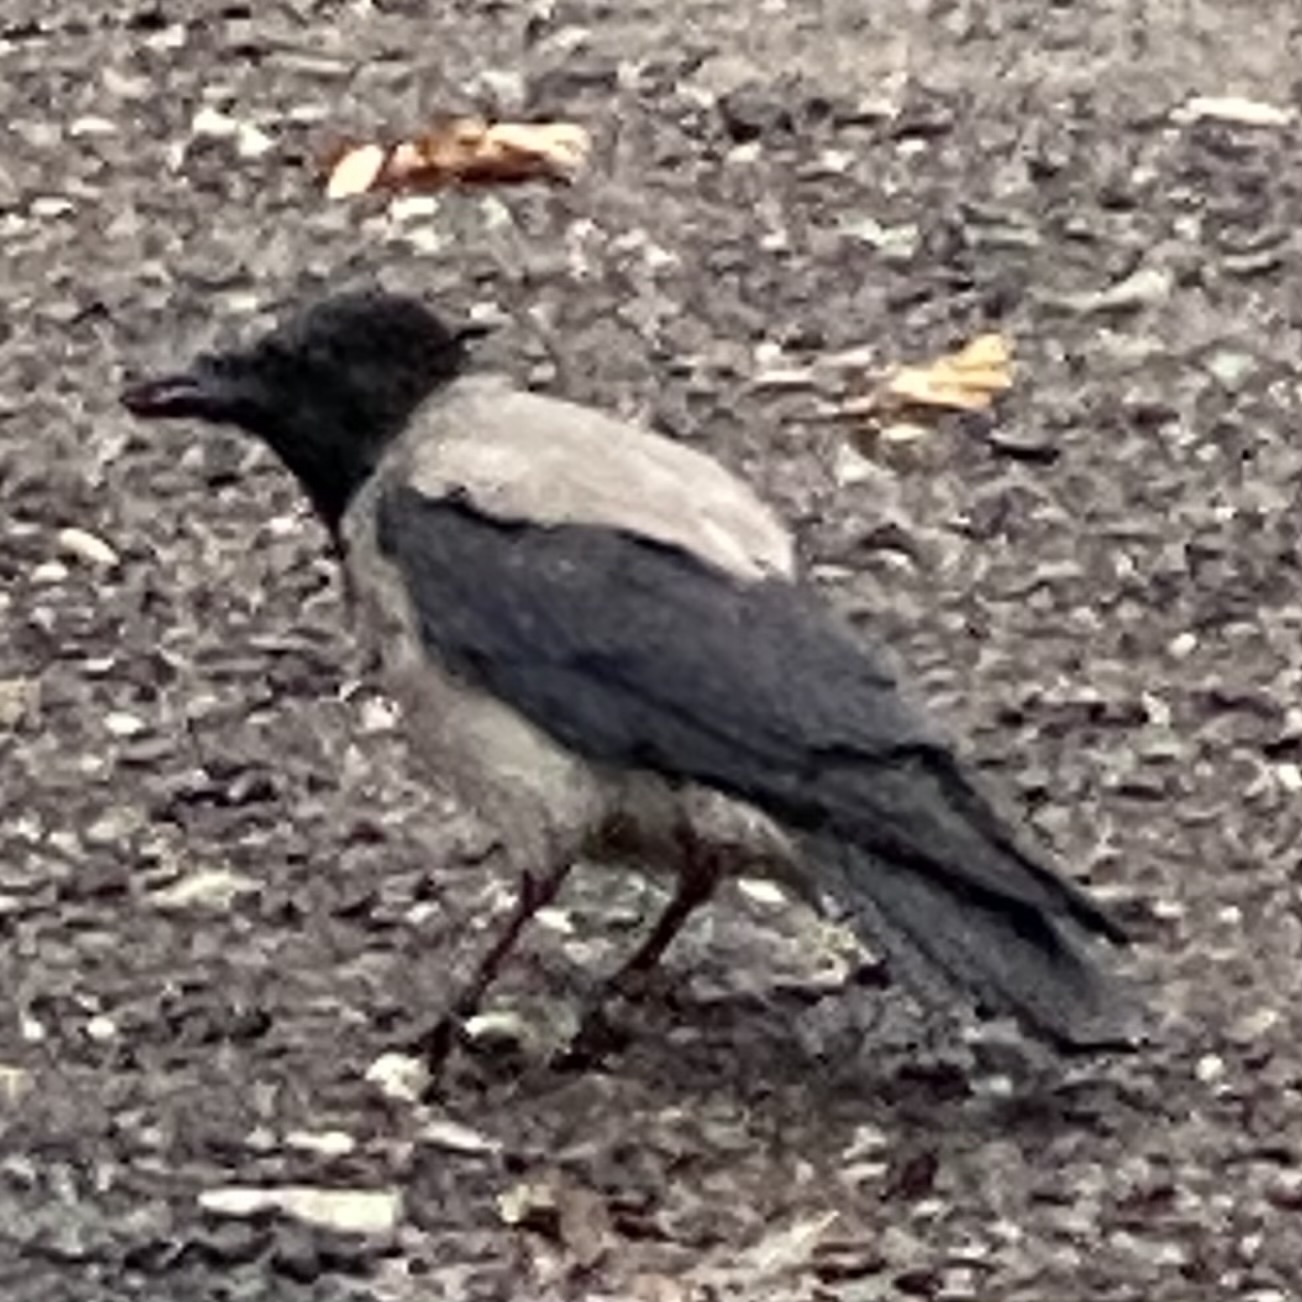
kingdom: Animalia
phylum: Chordata
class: Aves
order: Passeriformes
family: Corvidae
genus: Corvus
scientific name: Corvus cornix
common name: Hooded crow
